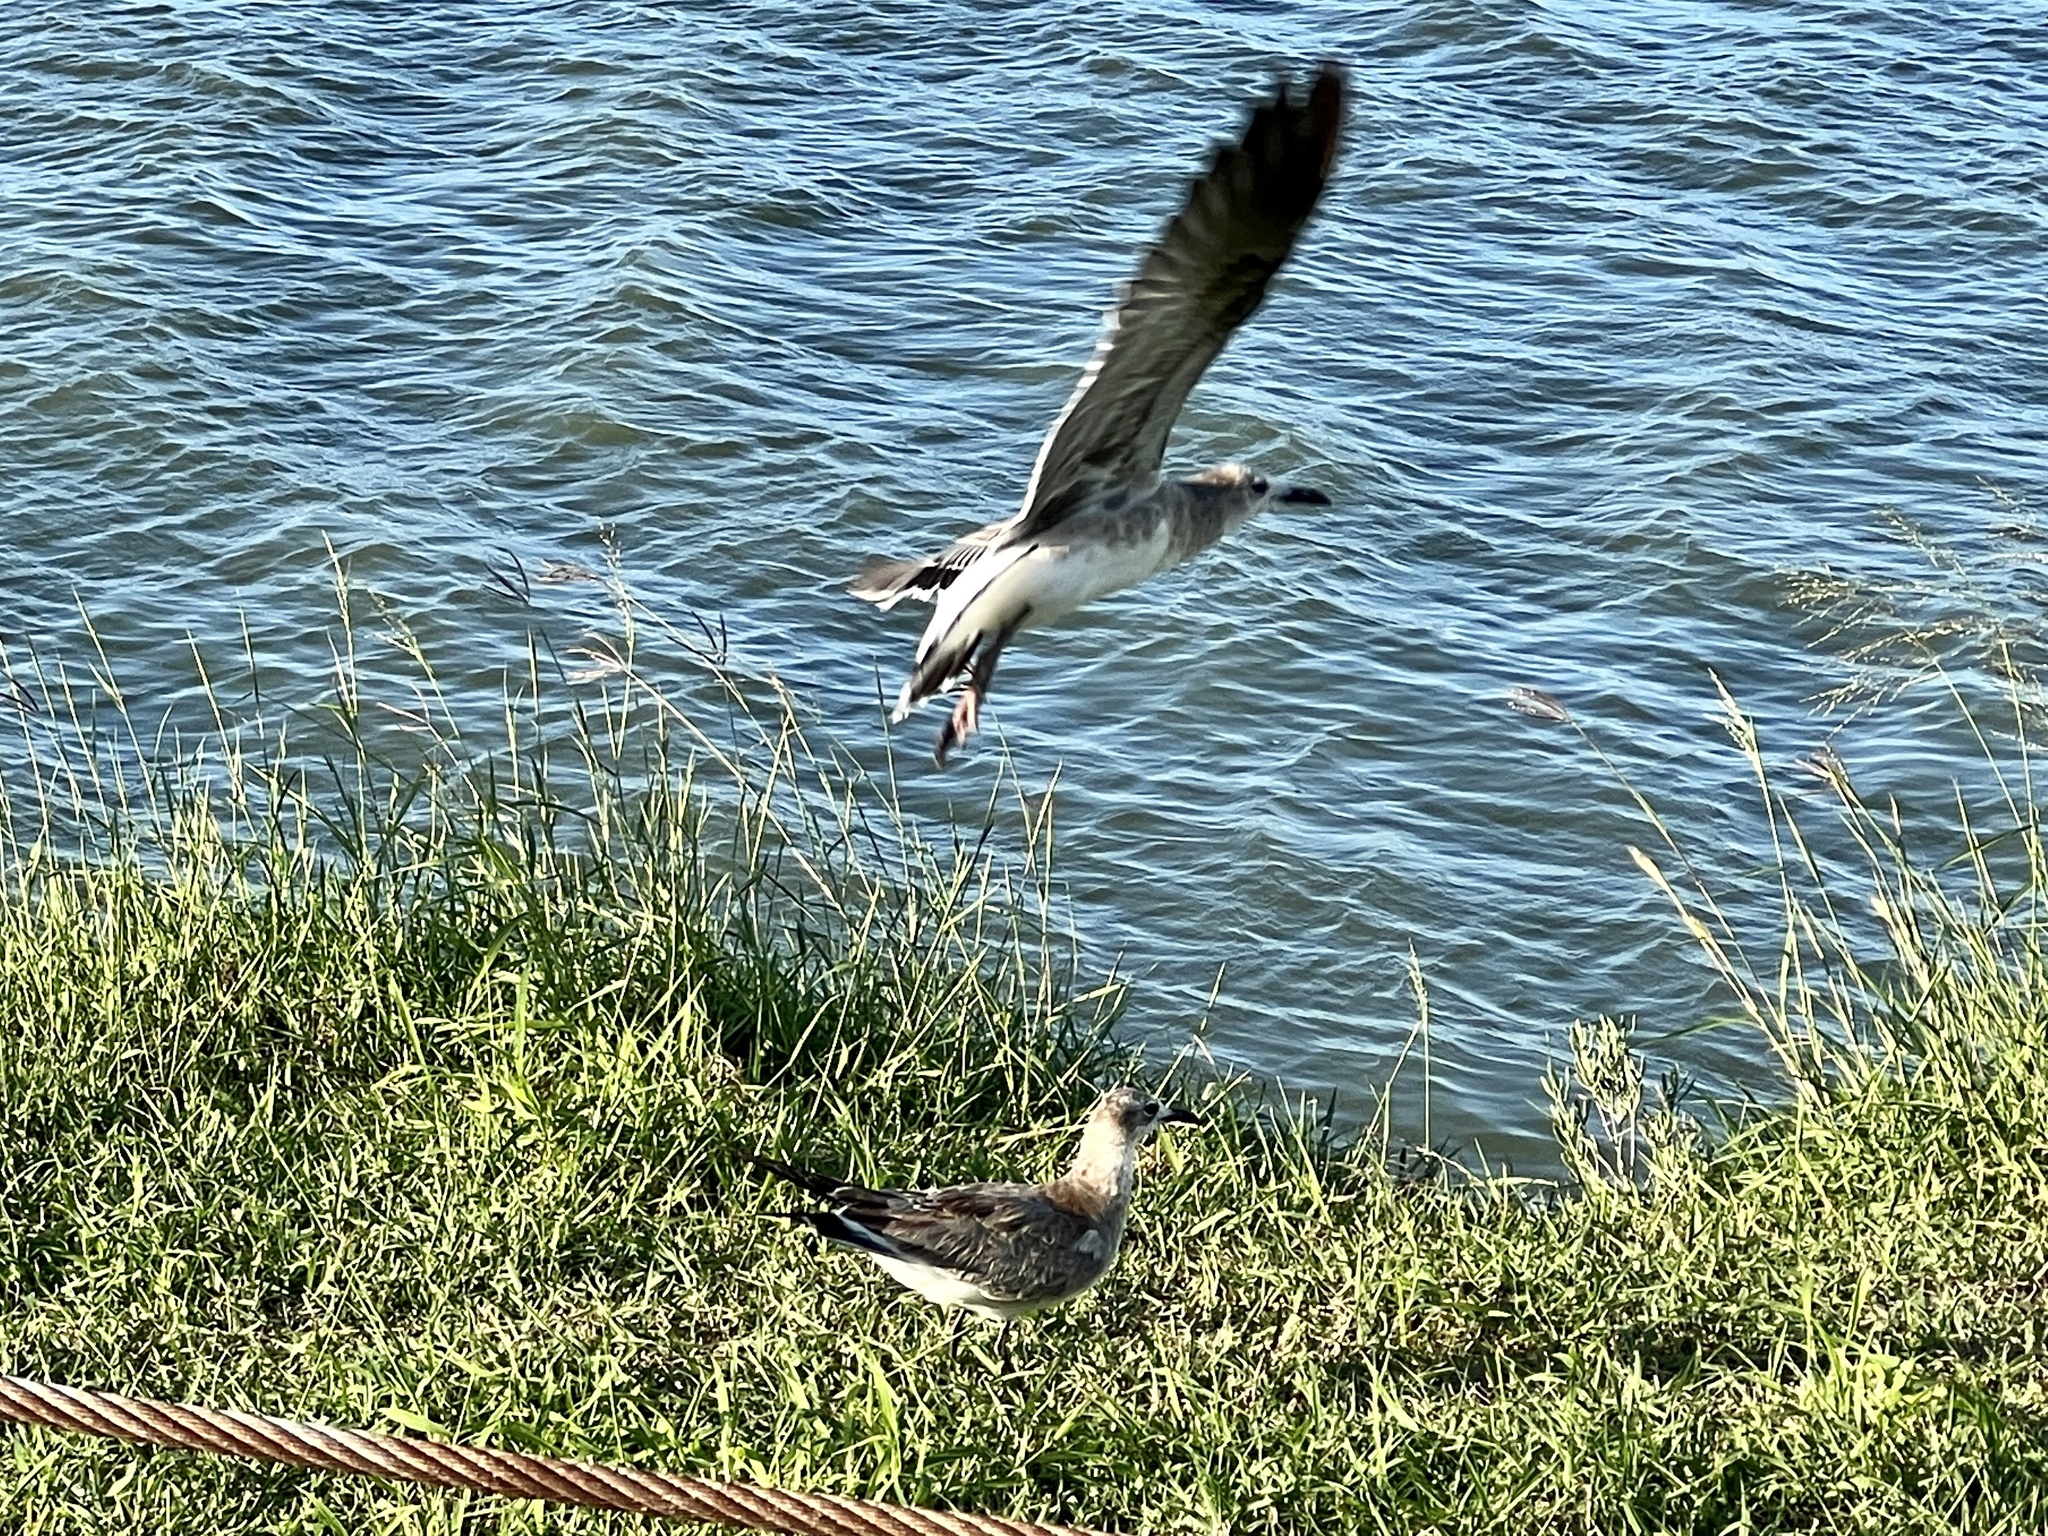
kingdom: Animalia
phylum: Chordata
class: Aves
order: Charadriiformes
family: Laridae
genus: Leucophaeus
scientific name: Leucophaeus atricilla
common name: Laughing gull
